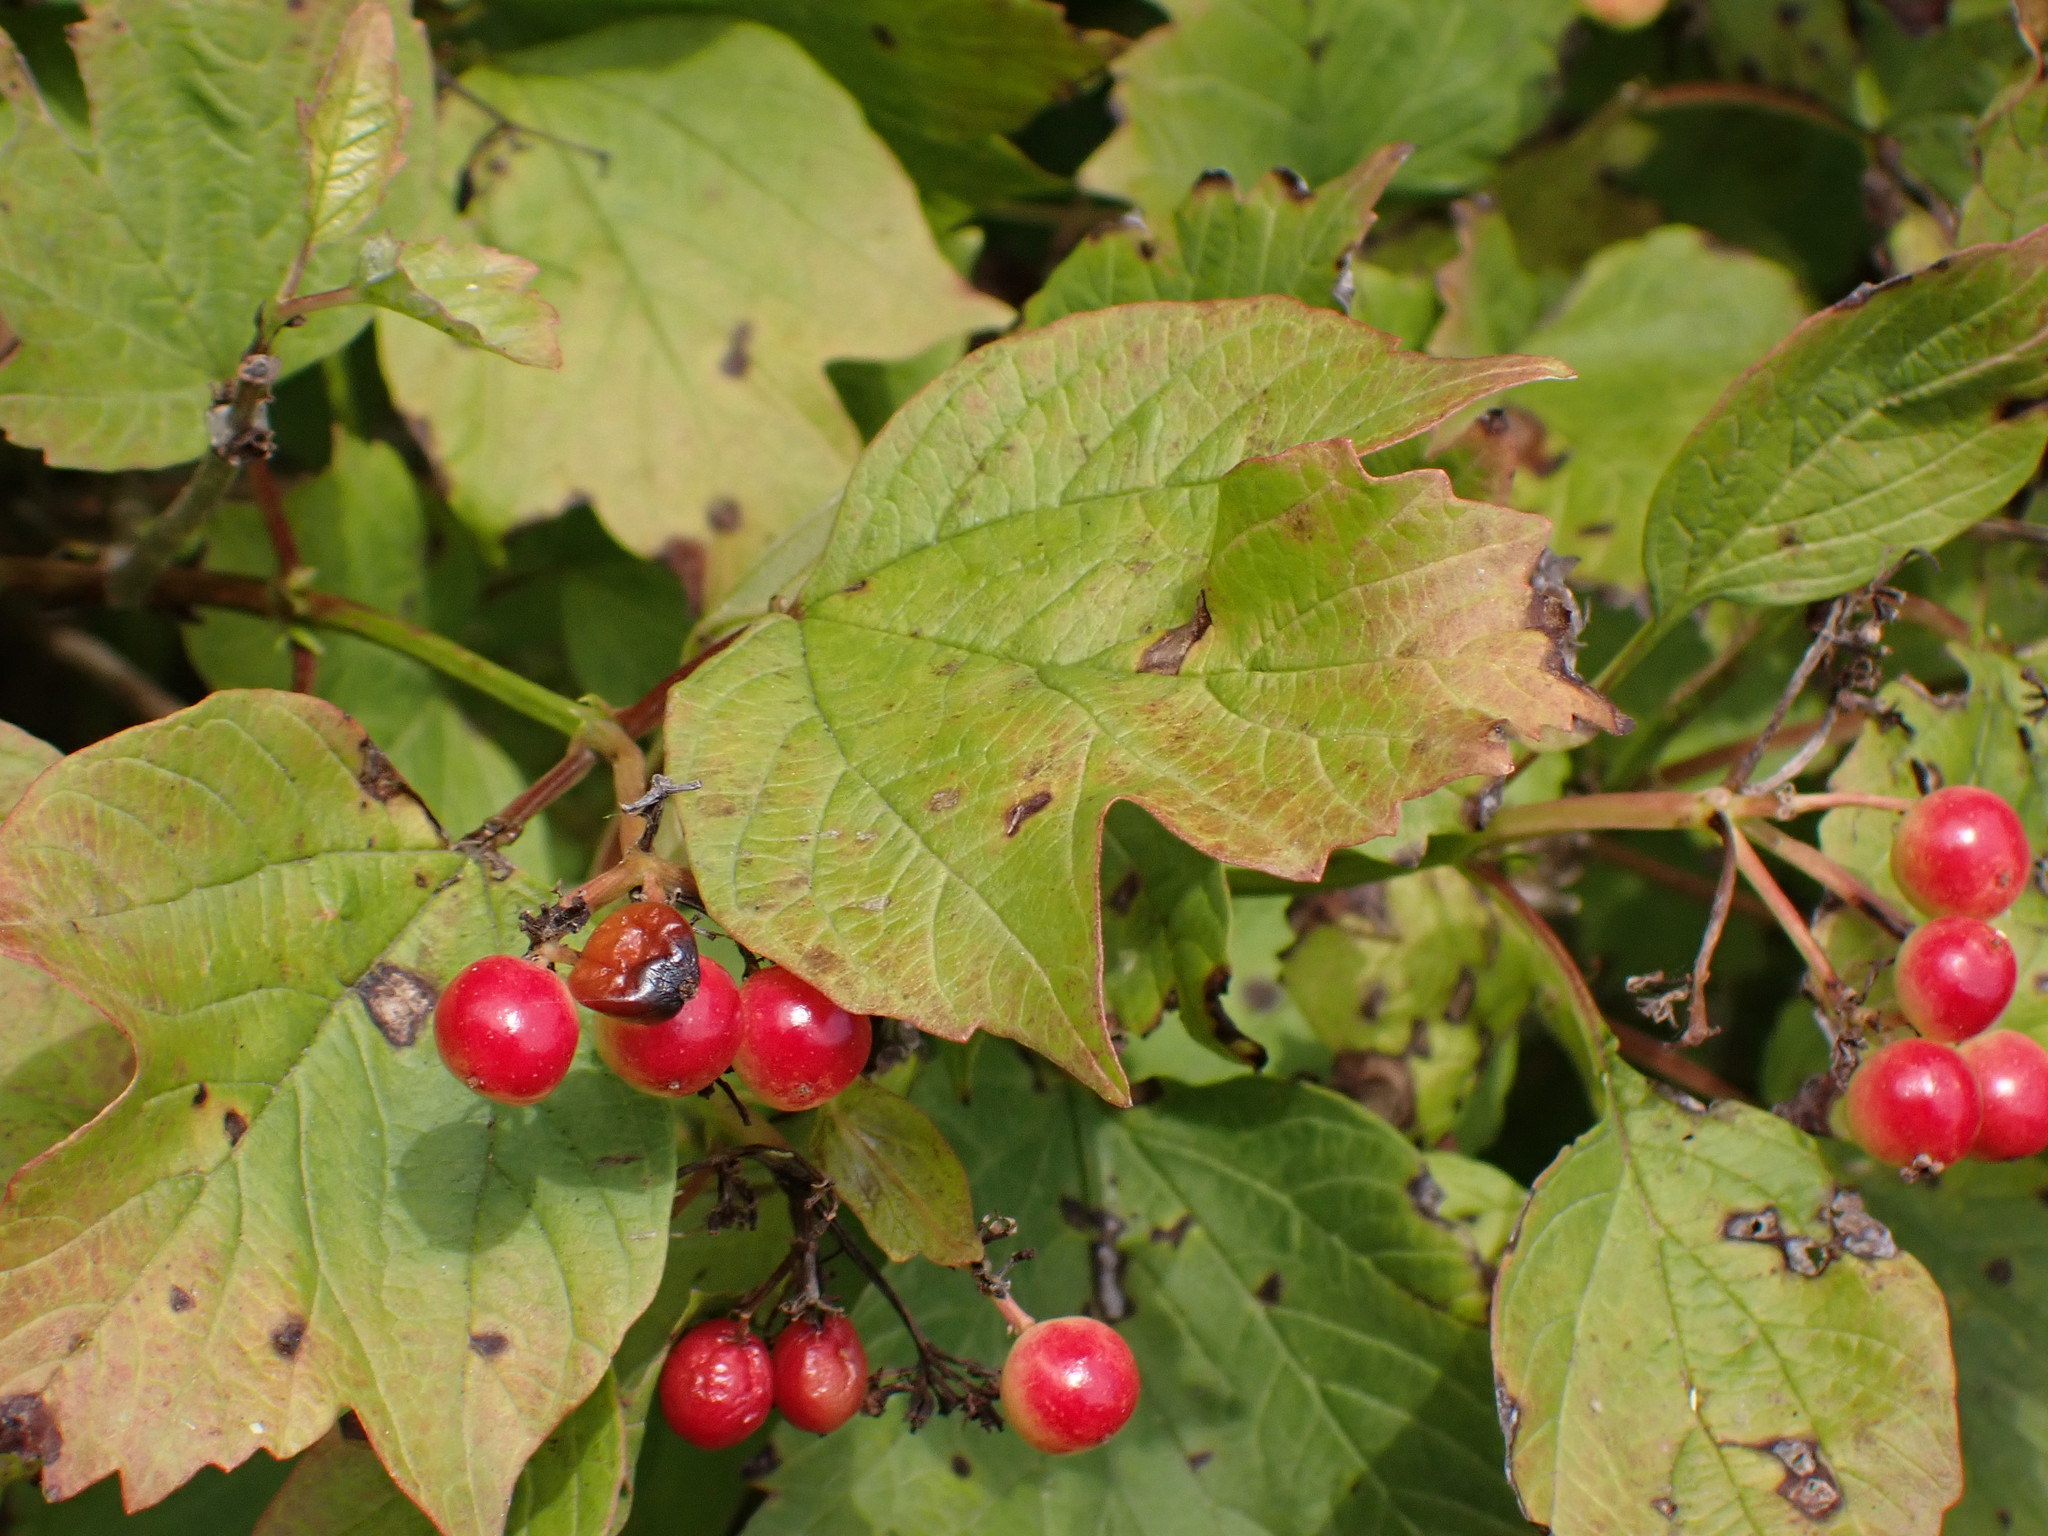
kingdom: Plantae
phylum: Tracheophyta
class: Magnoliopsida
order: Dipsacales
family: Viburnaceae
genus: Viburnum
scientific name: Viburnum opulus
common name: Guelder-rose
